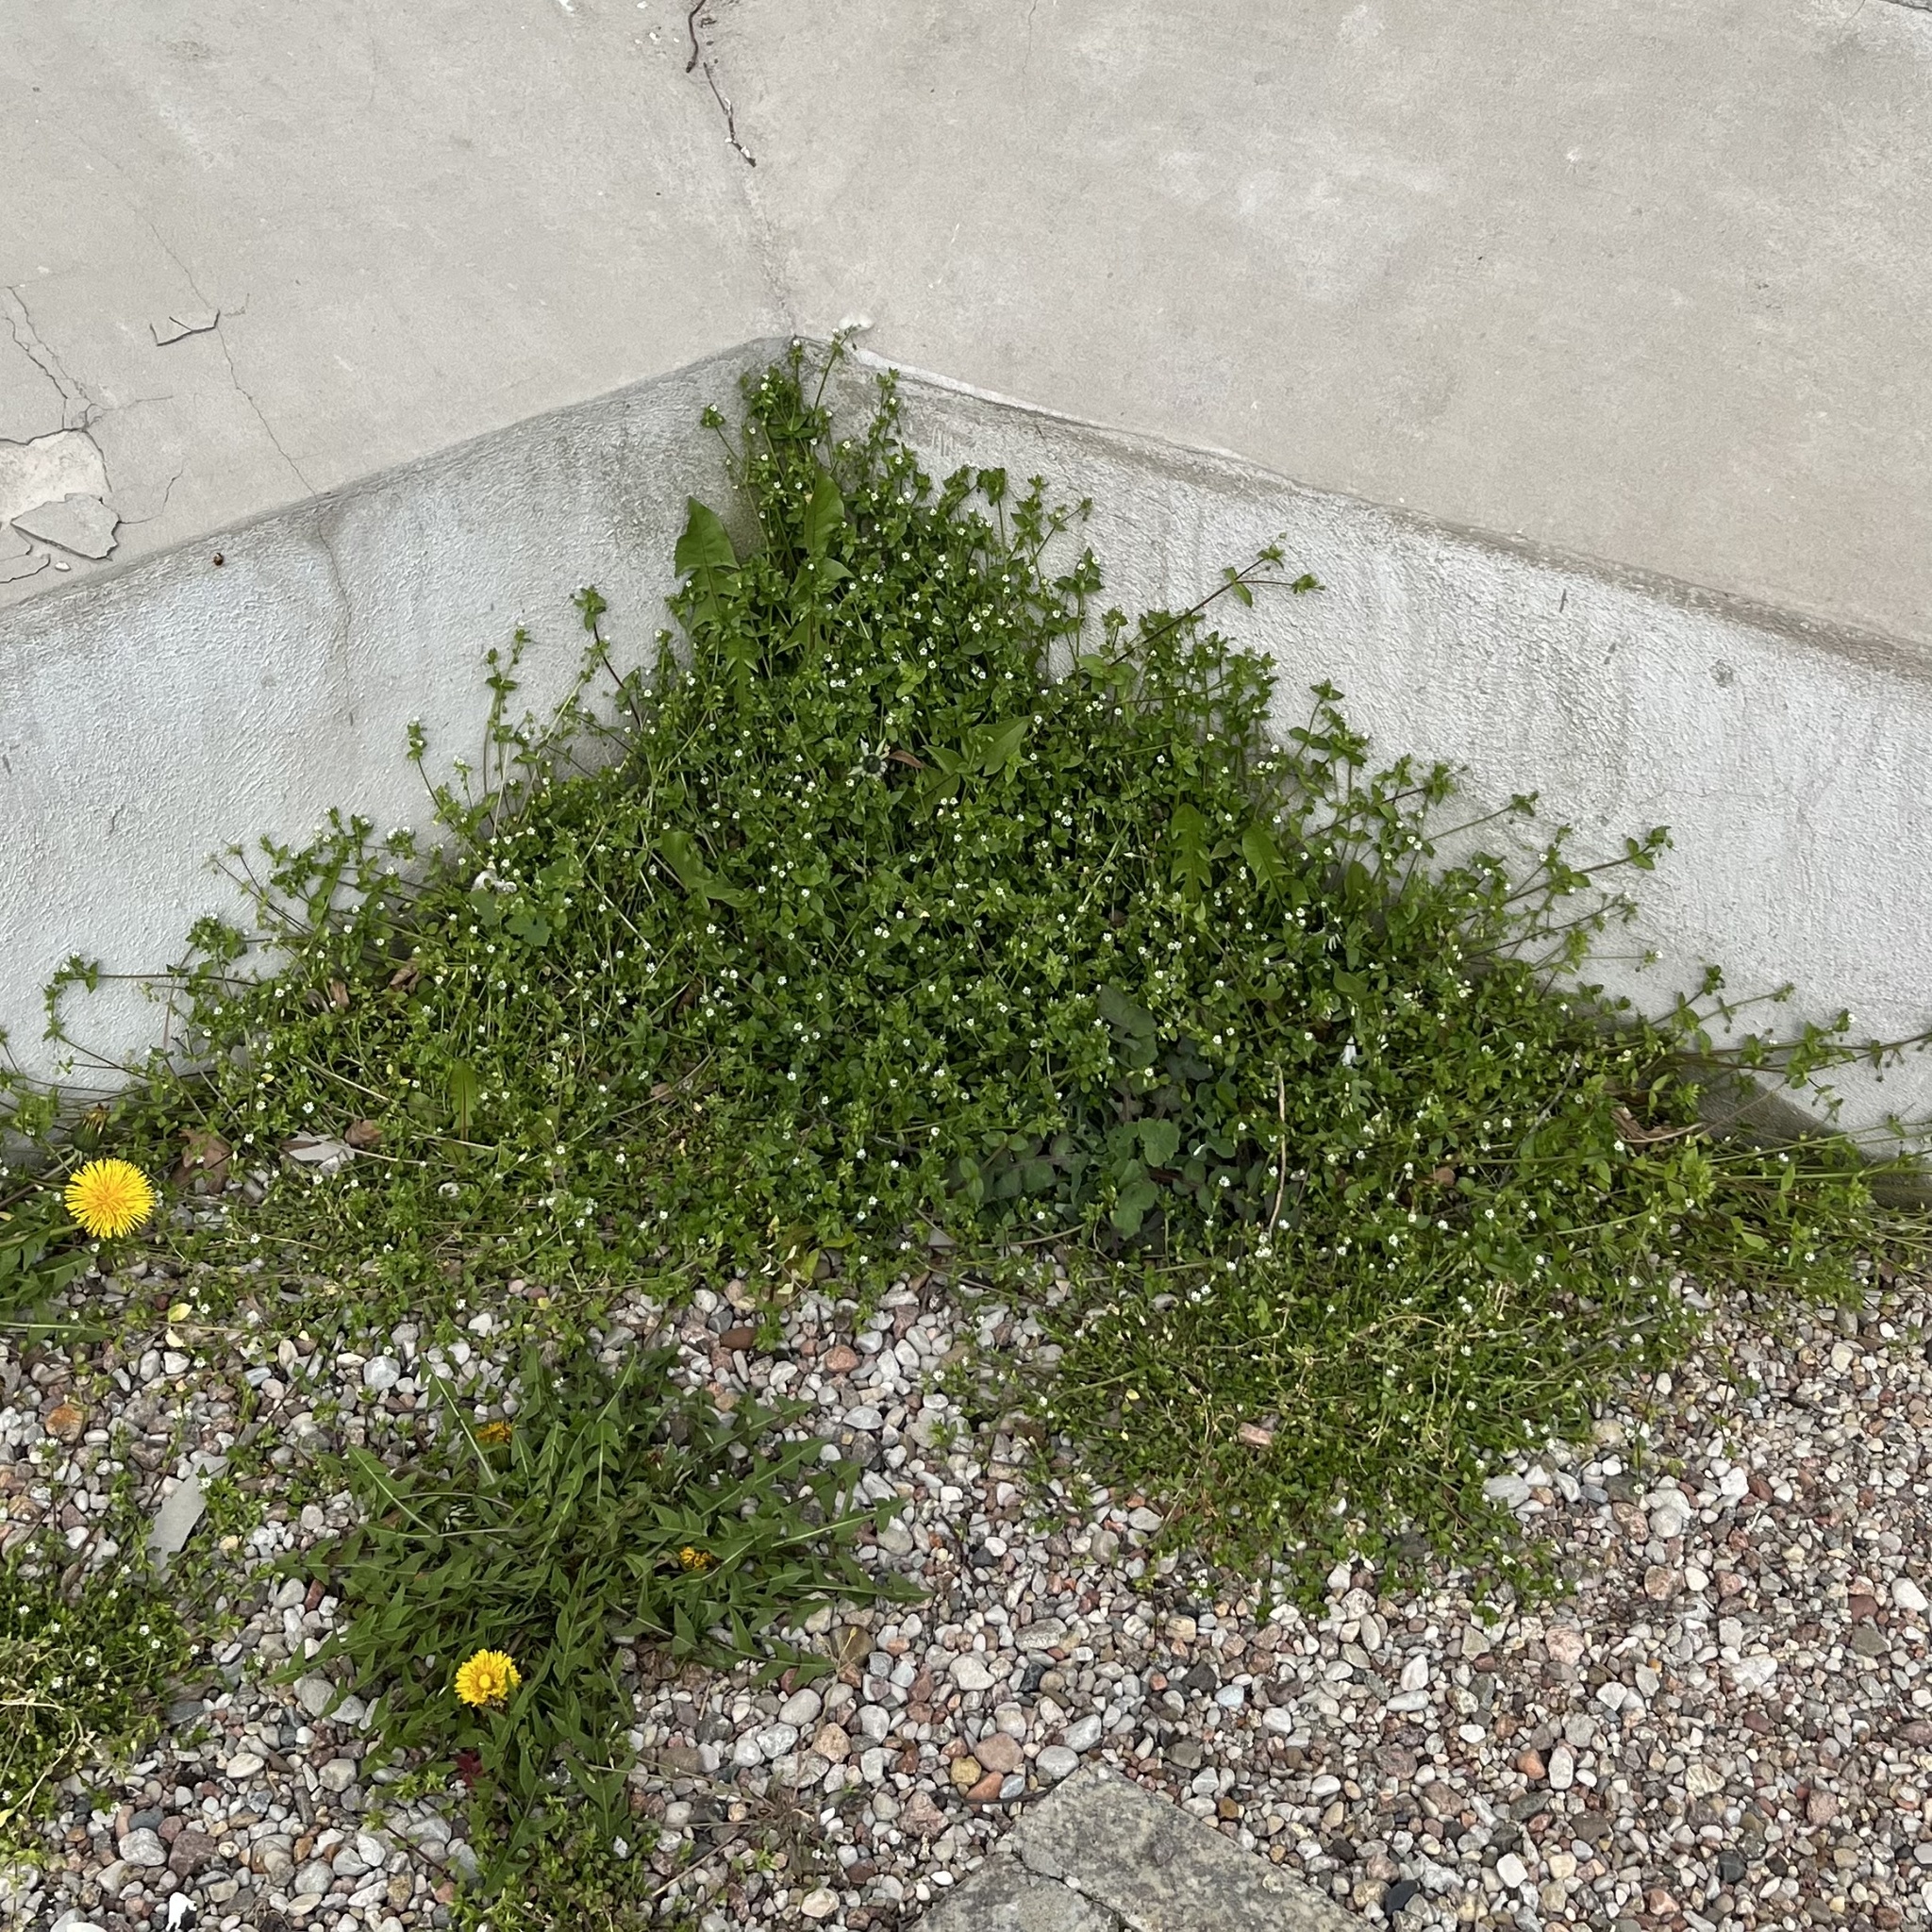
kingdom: Plantae
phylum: Tracheophyta
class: Magnoliopsida
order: Caryophyllales
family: Caryophyllaceae
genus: Stellaria
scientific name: Stellaria media
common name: Common chickweed
